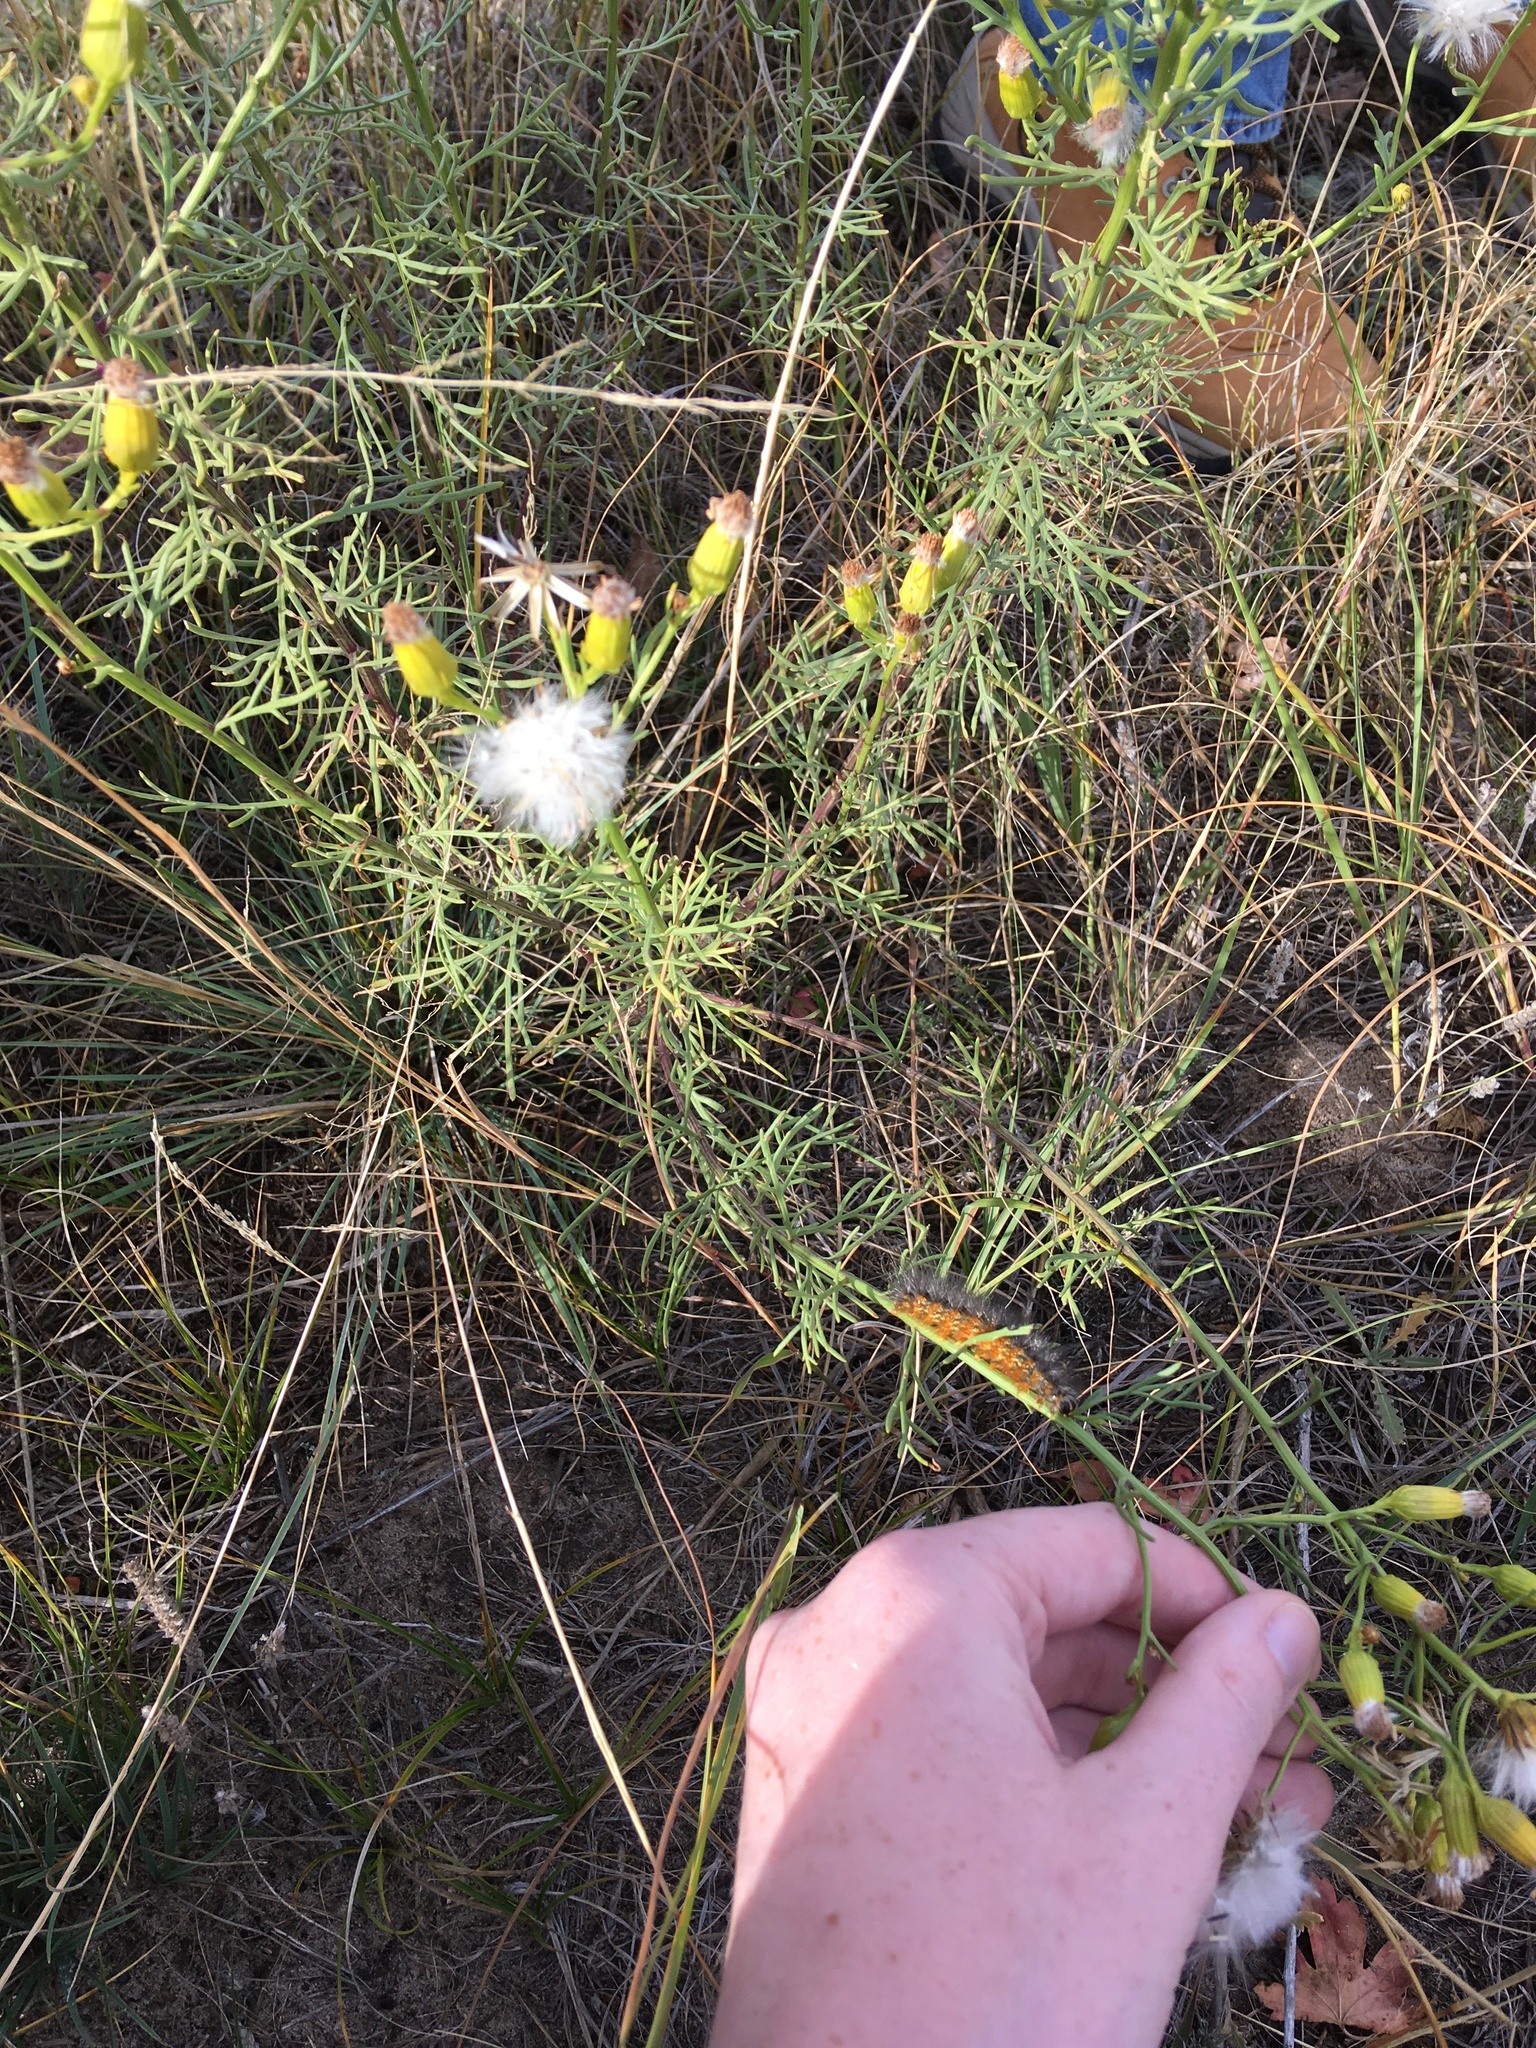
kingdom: Animalia
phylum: Arthropoda
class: Insecta
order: Lepidoptera
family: Erebidae
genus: Estigmene
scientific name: Estigmene acrea
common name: Salt marsh moth
